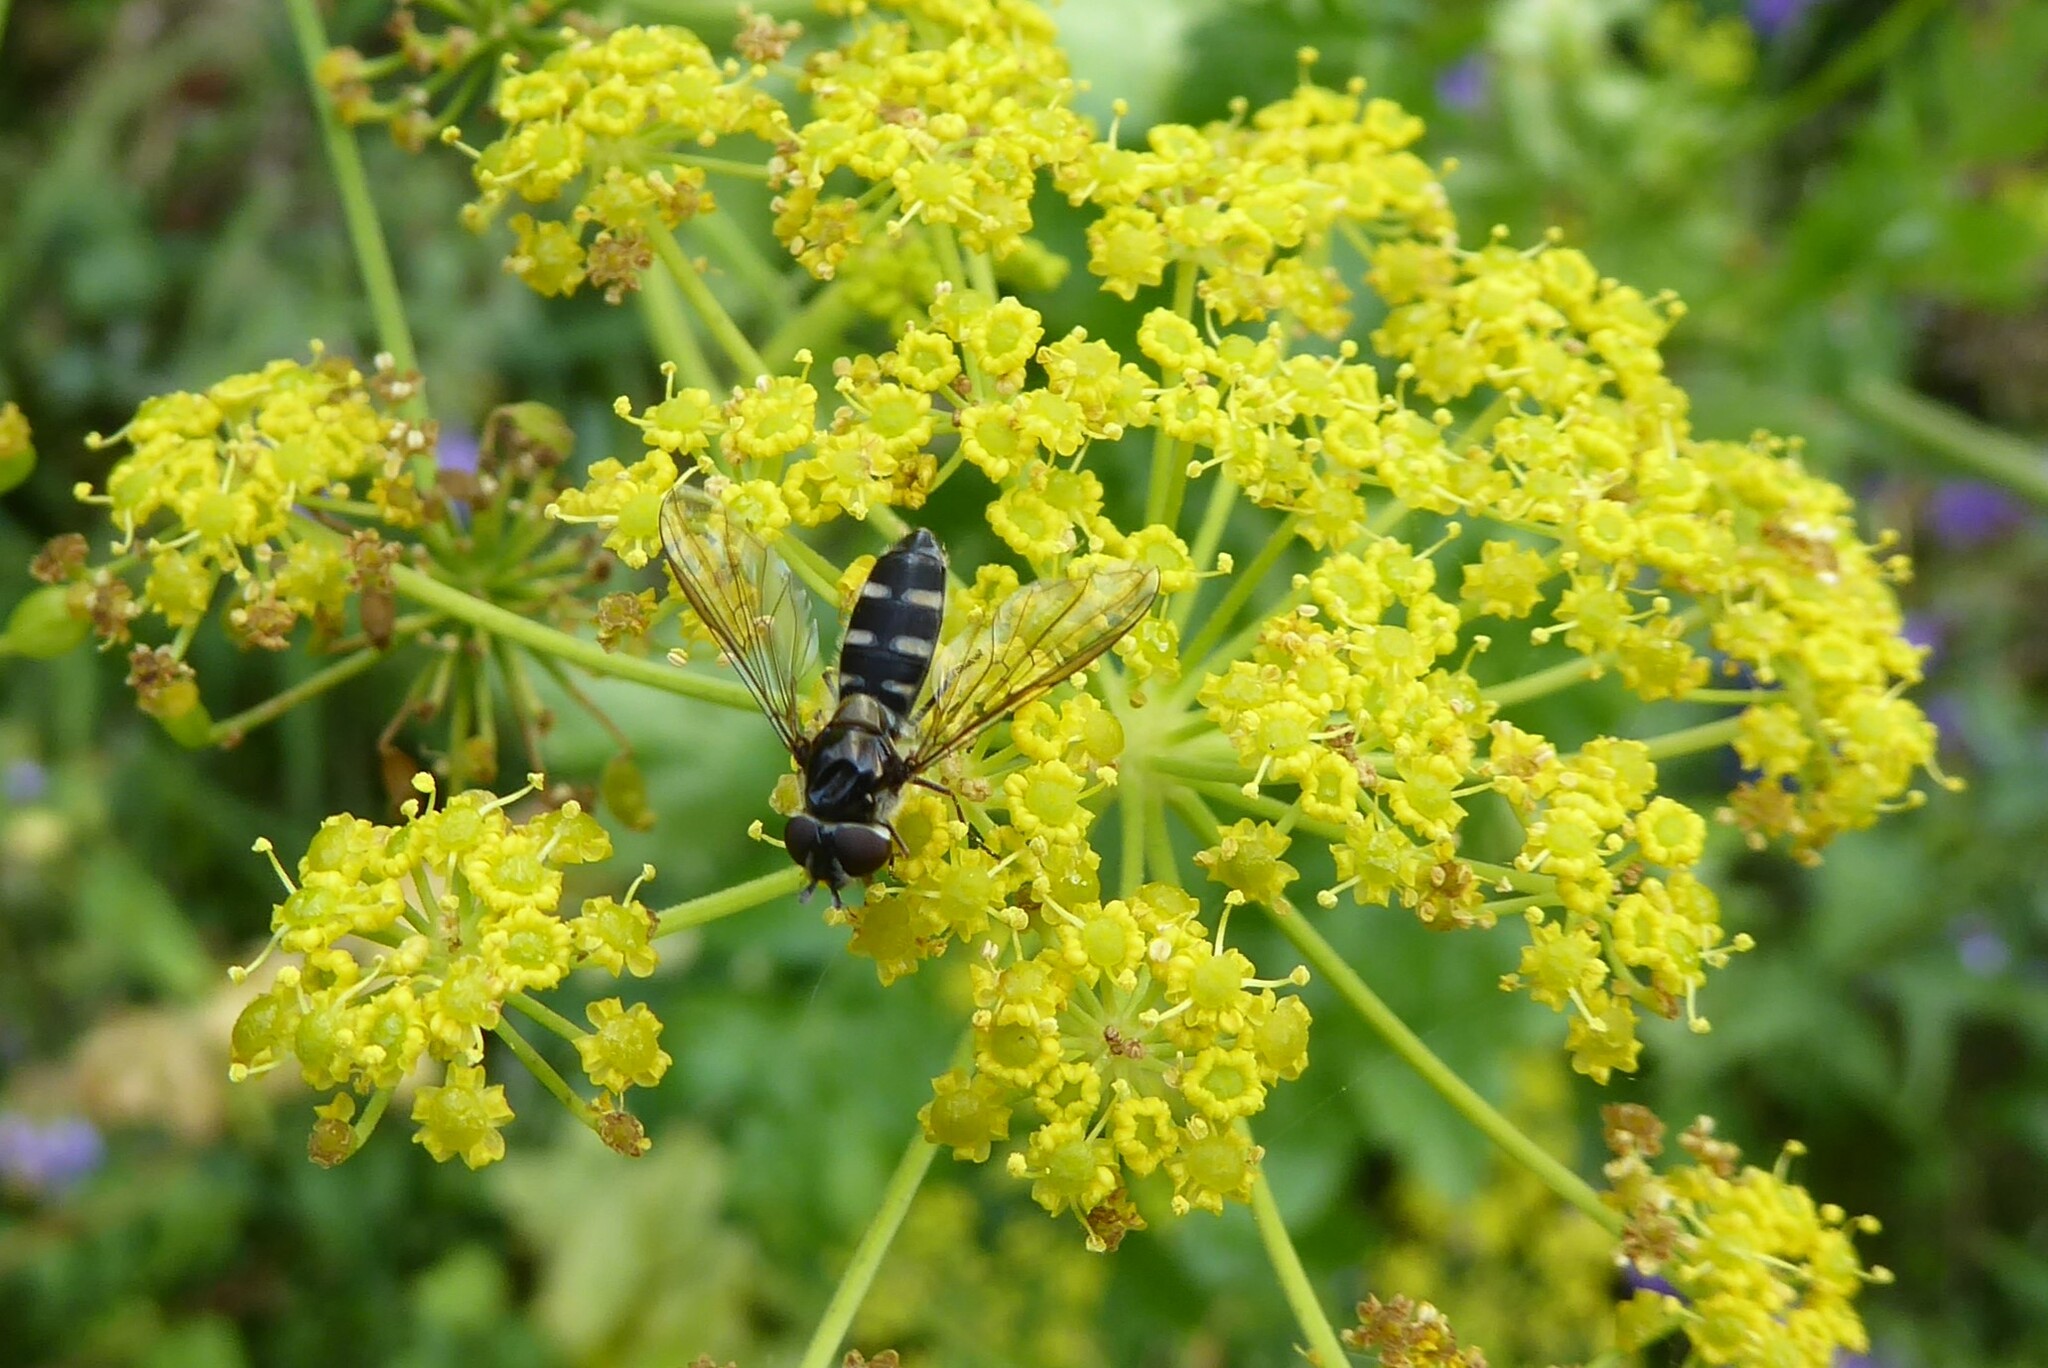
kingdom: Animalia
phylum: Arthropoda
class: Insecta
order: Diptera
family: Syrphidae
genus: Melangyna
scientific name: Melangyna novaezelandiae
